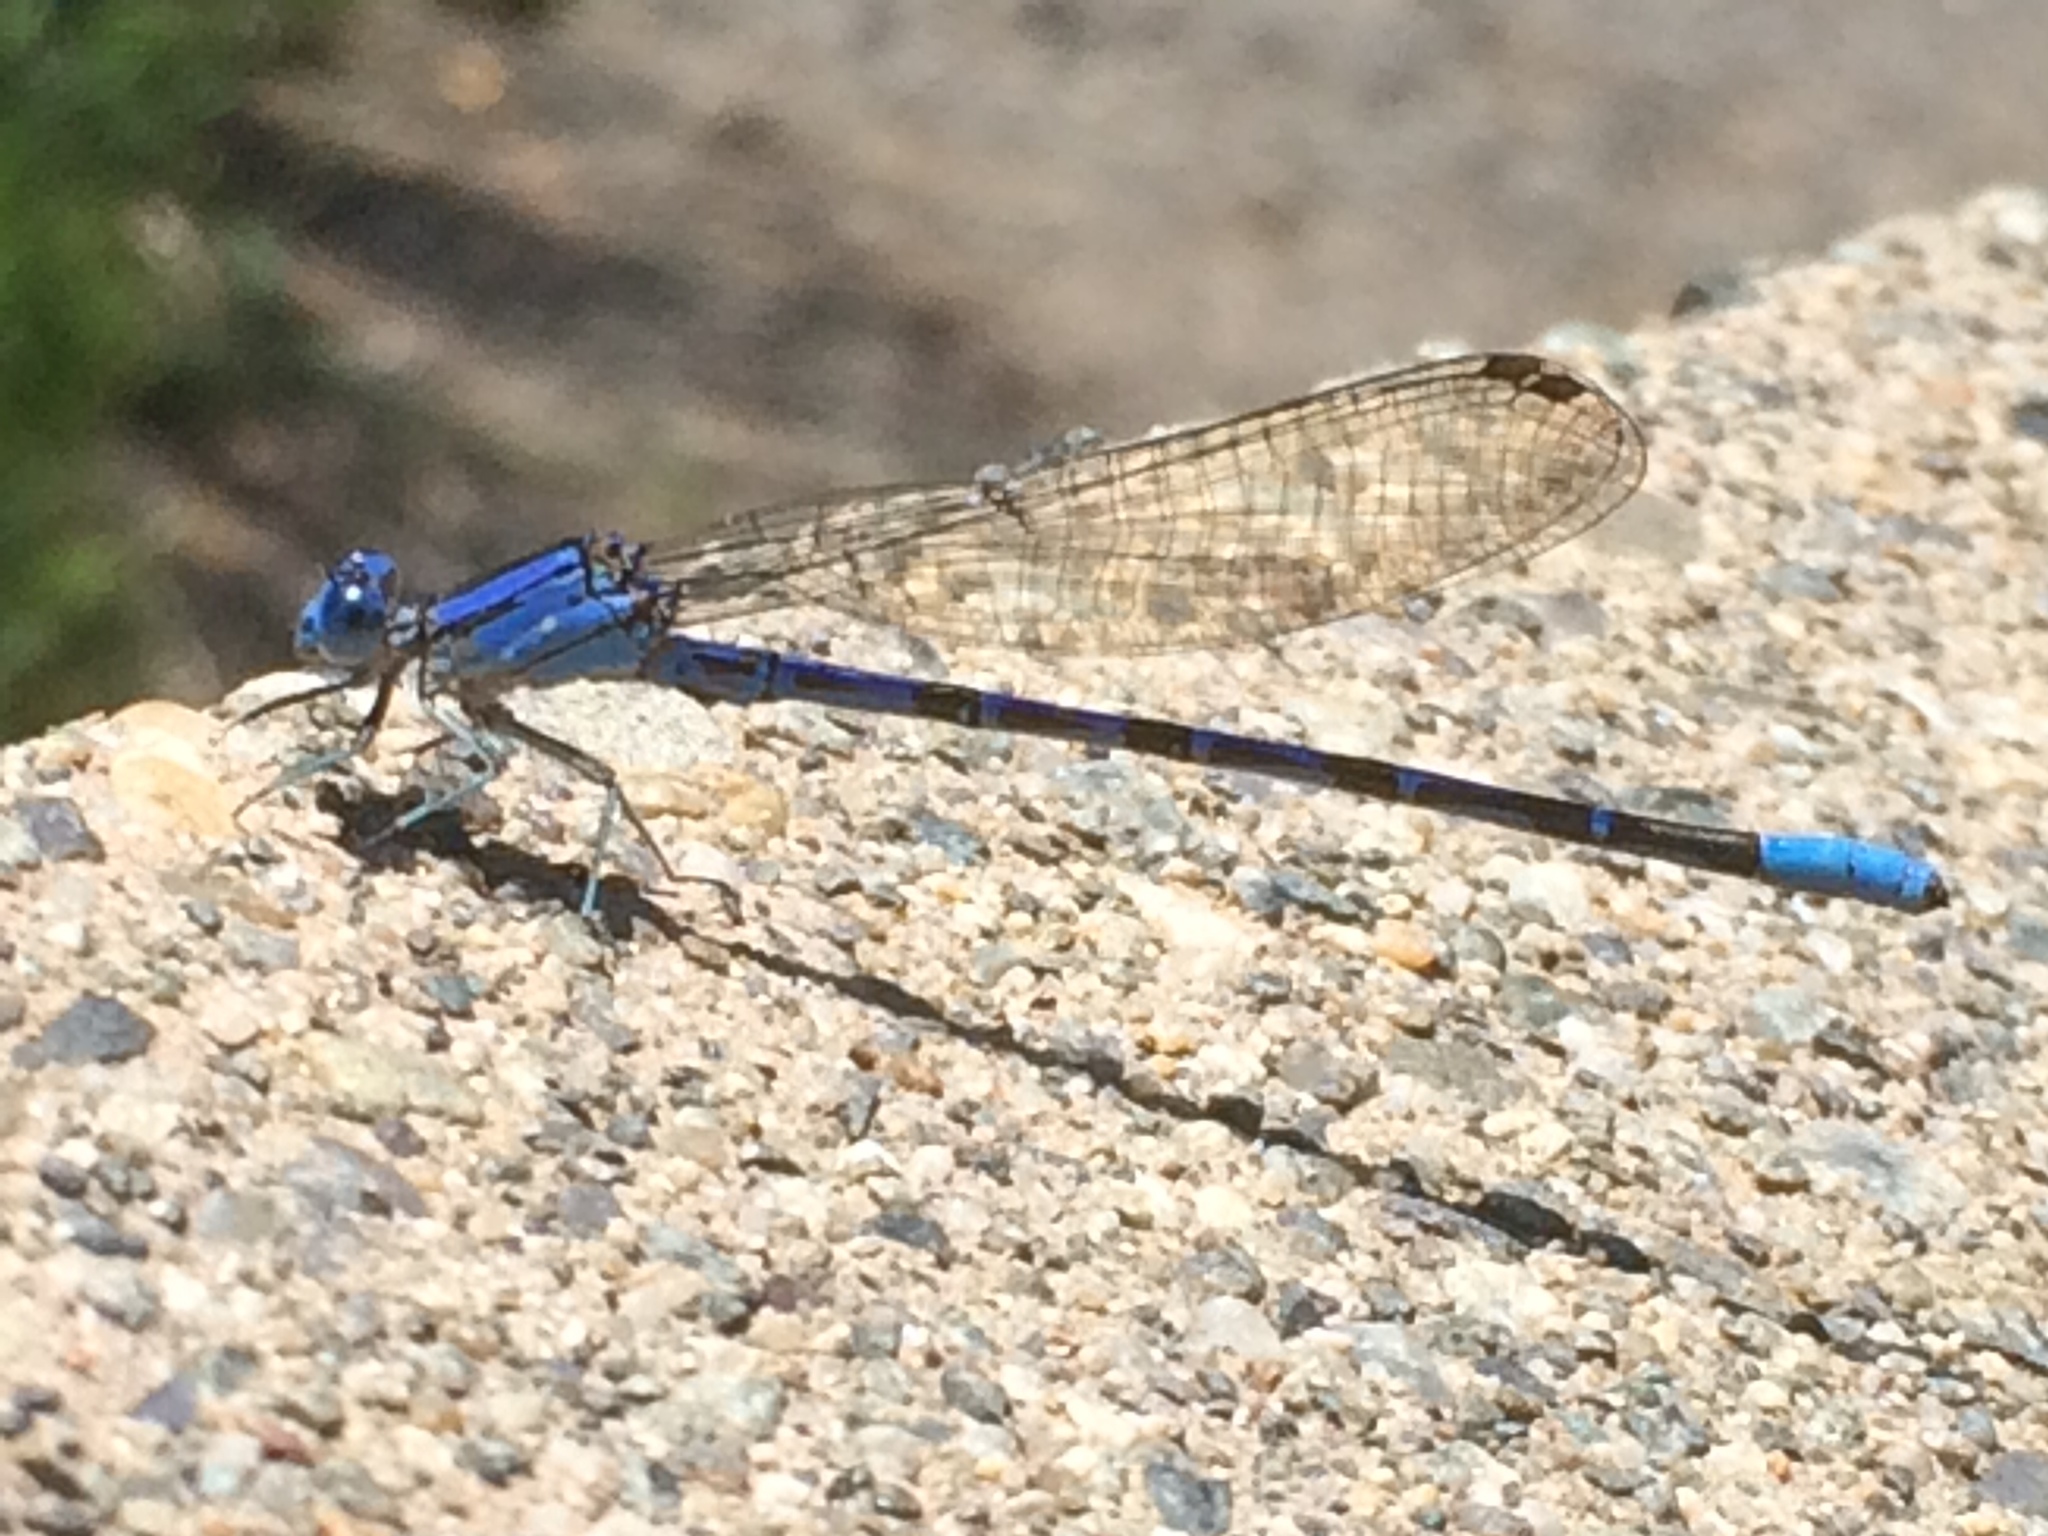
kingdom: Animalia
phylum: Arthropoda
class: Insecta
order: Odonata
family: Coenagrionidae
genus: Argia
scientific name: Argia vivida
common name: Vivid dancer
